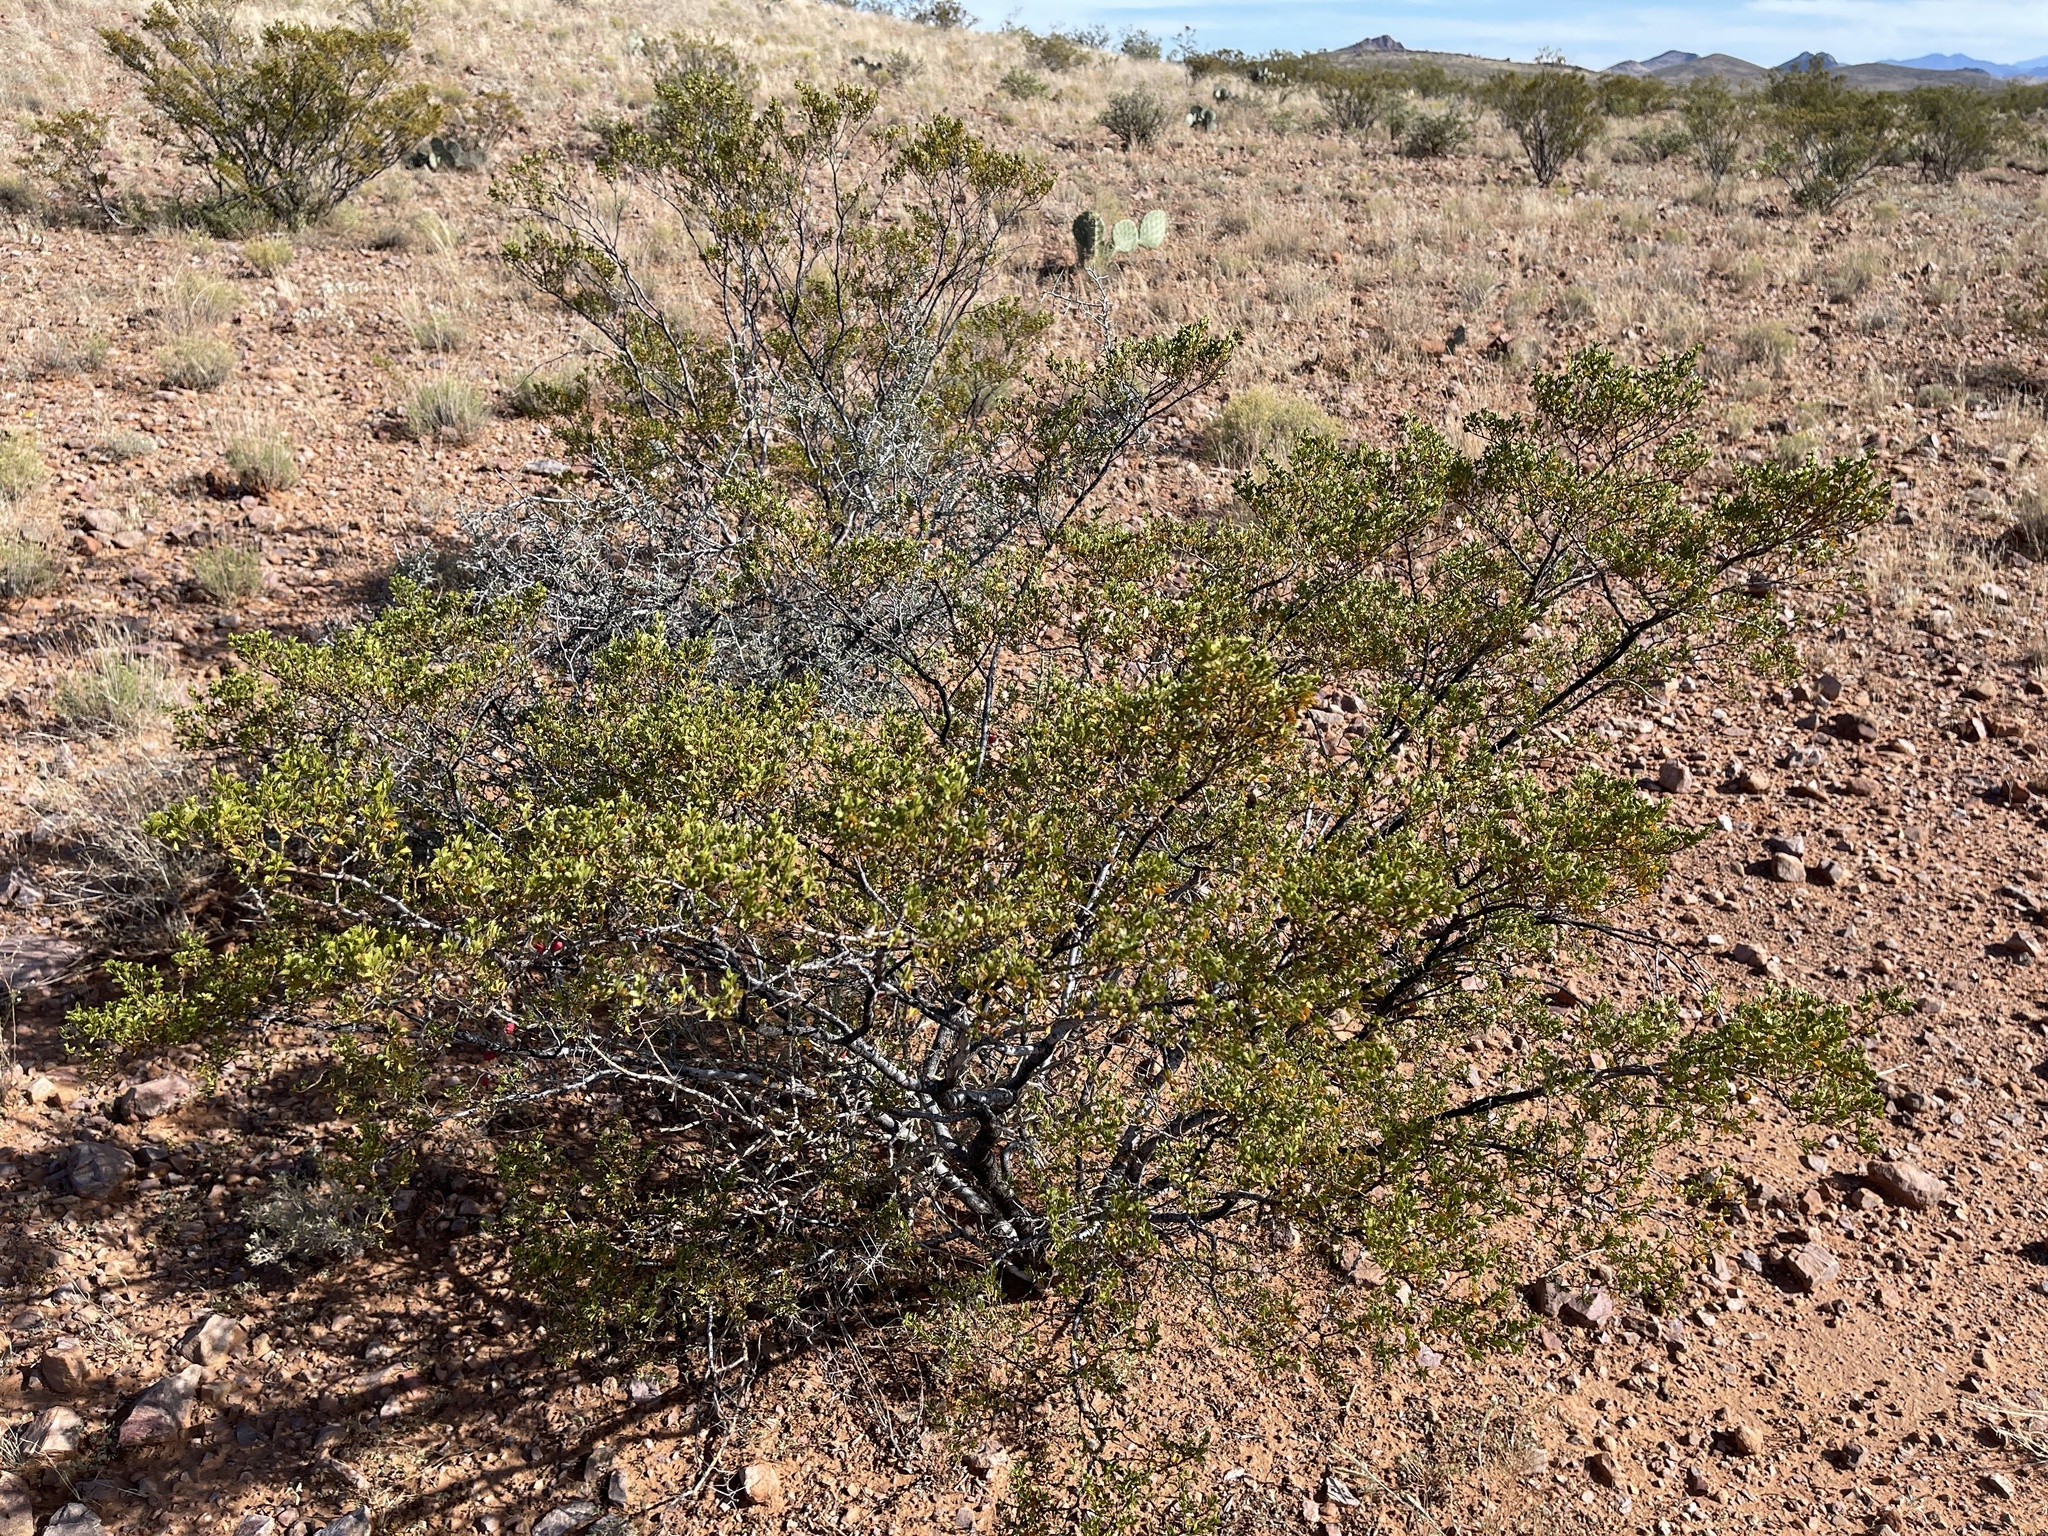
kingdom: Plantae
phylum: Tracheophyta
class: Magnoliopsida
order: Zygophyllales
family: Zygophyllaceae
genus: Larrea
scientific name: Larrea tridentata
